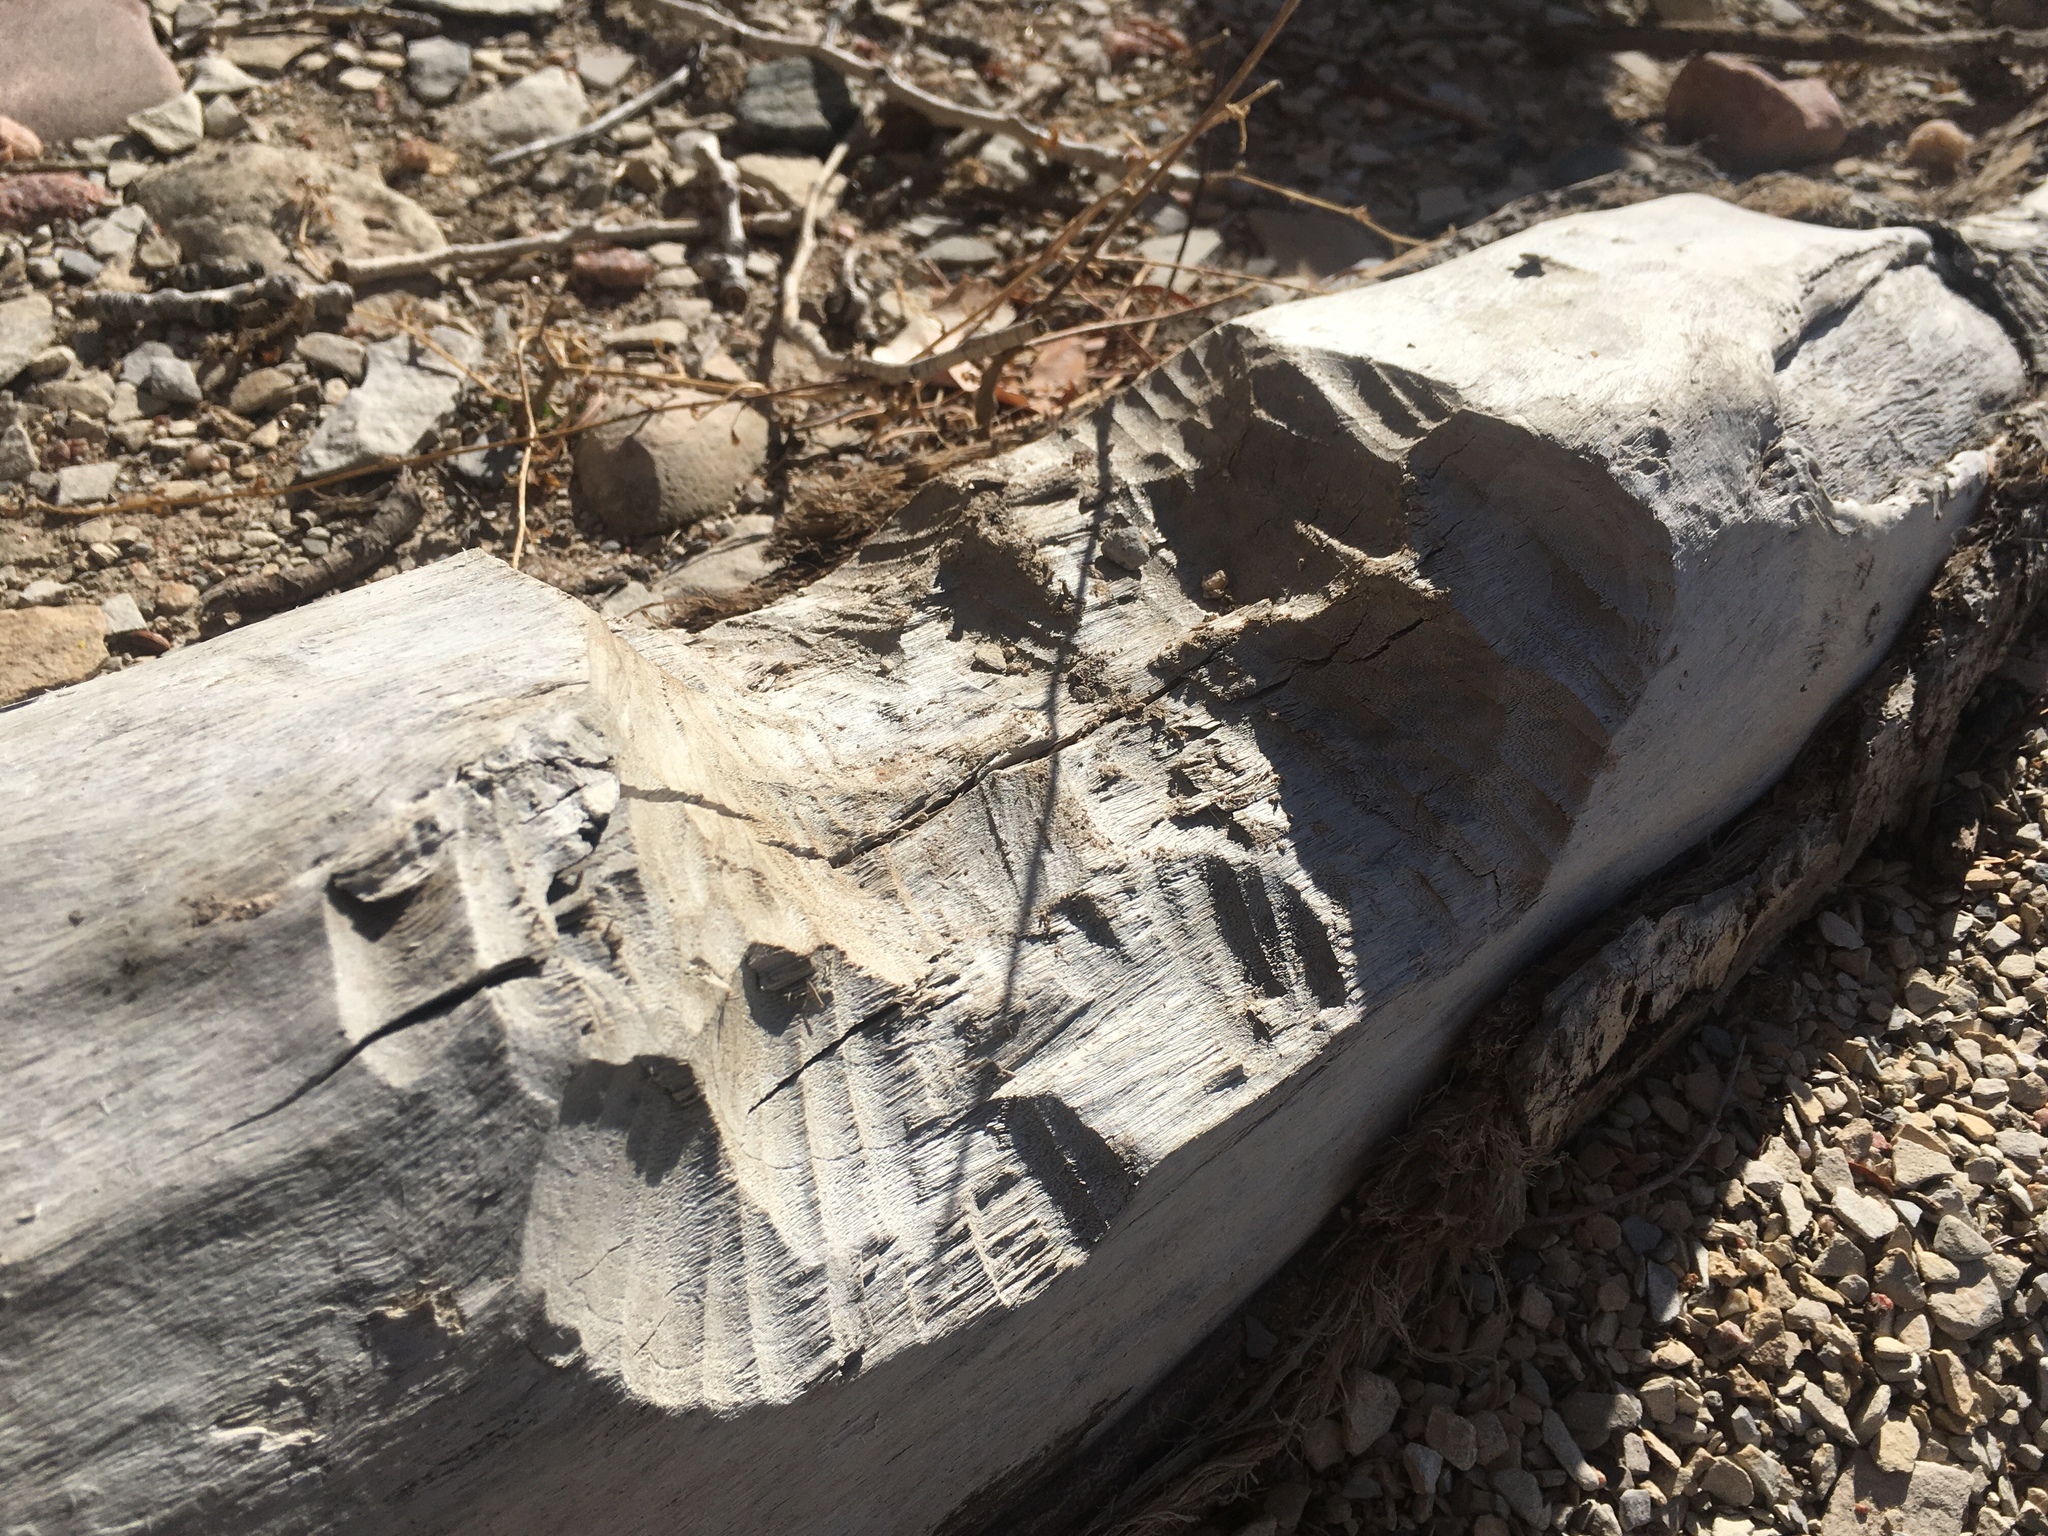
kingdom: Animalia
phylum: Chordata
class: Mammalia
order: Rodentia
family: Castoridae
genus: Castor
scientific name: Castor canadensis
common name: American beaver
